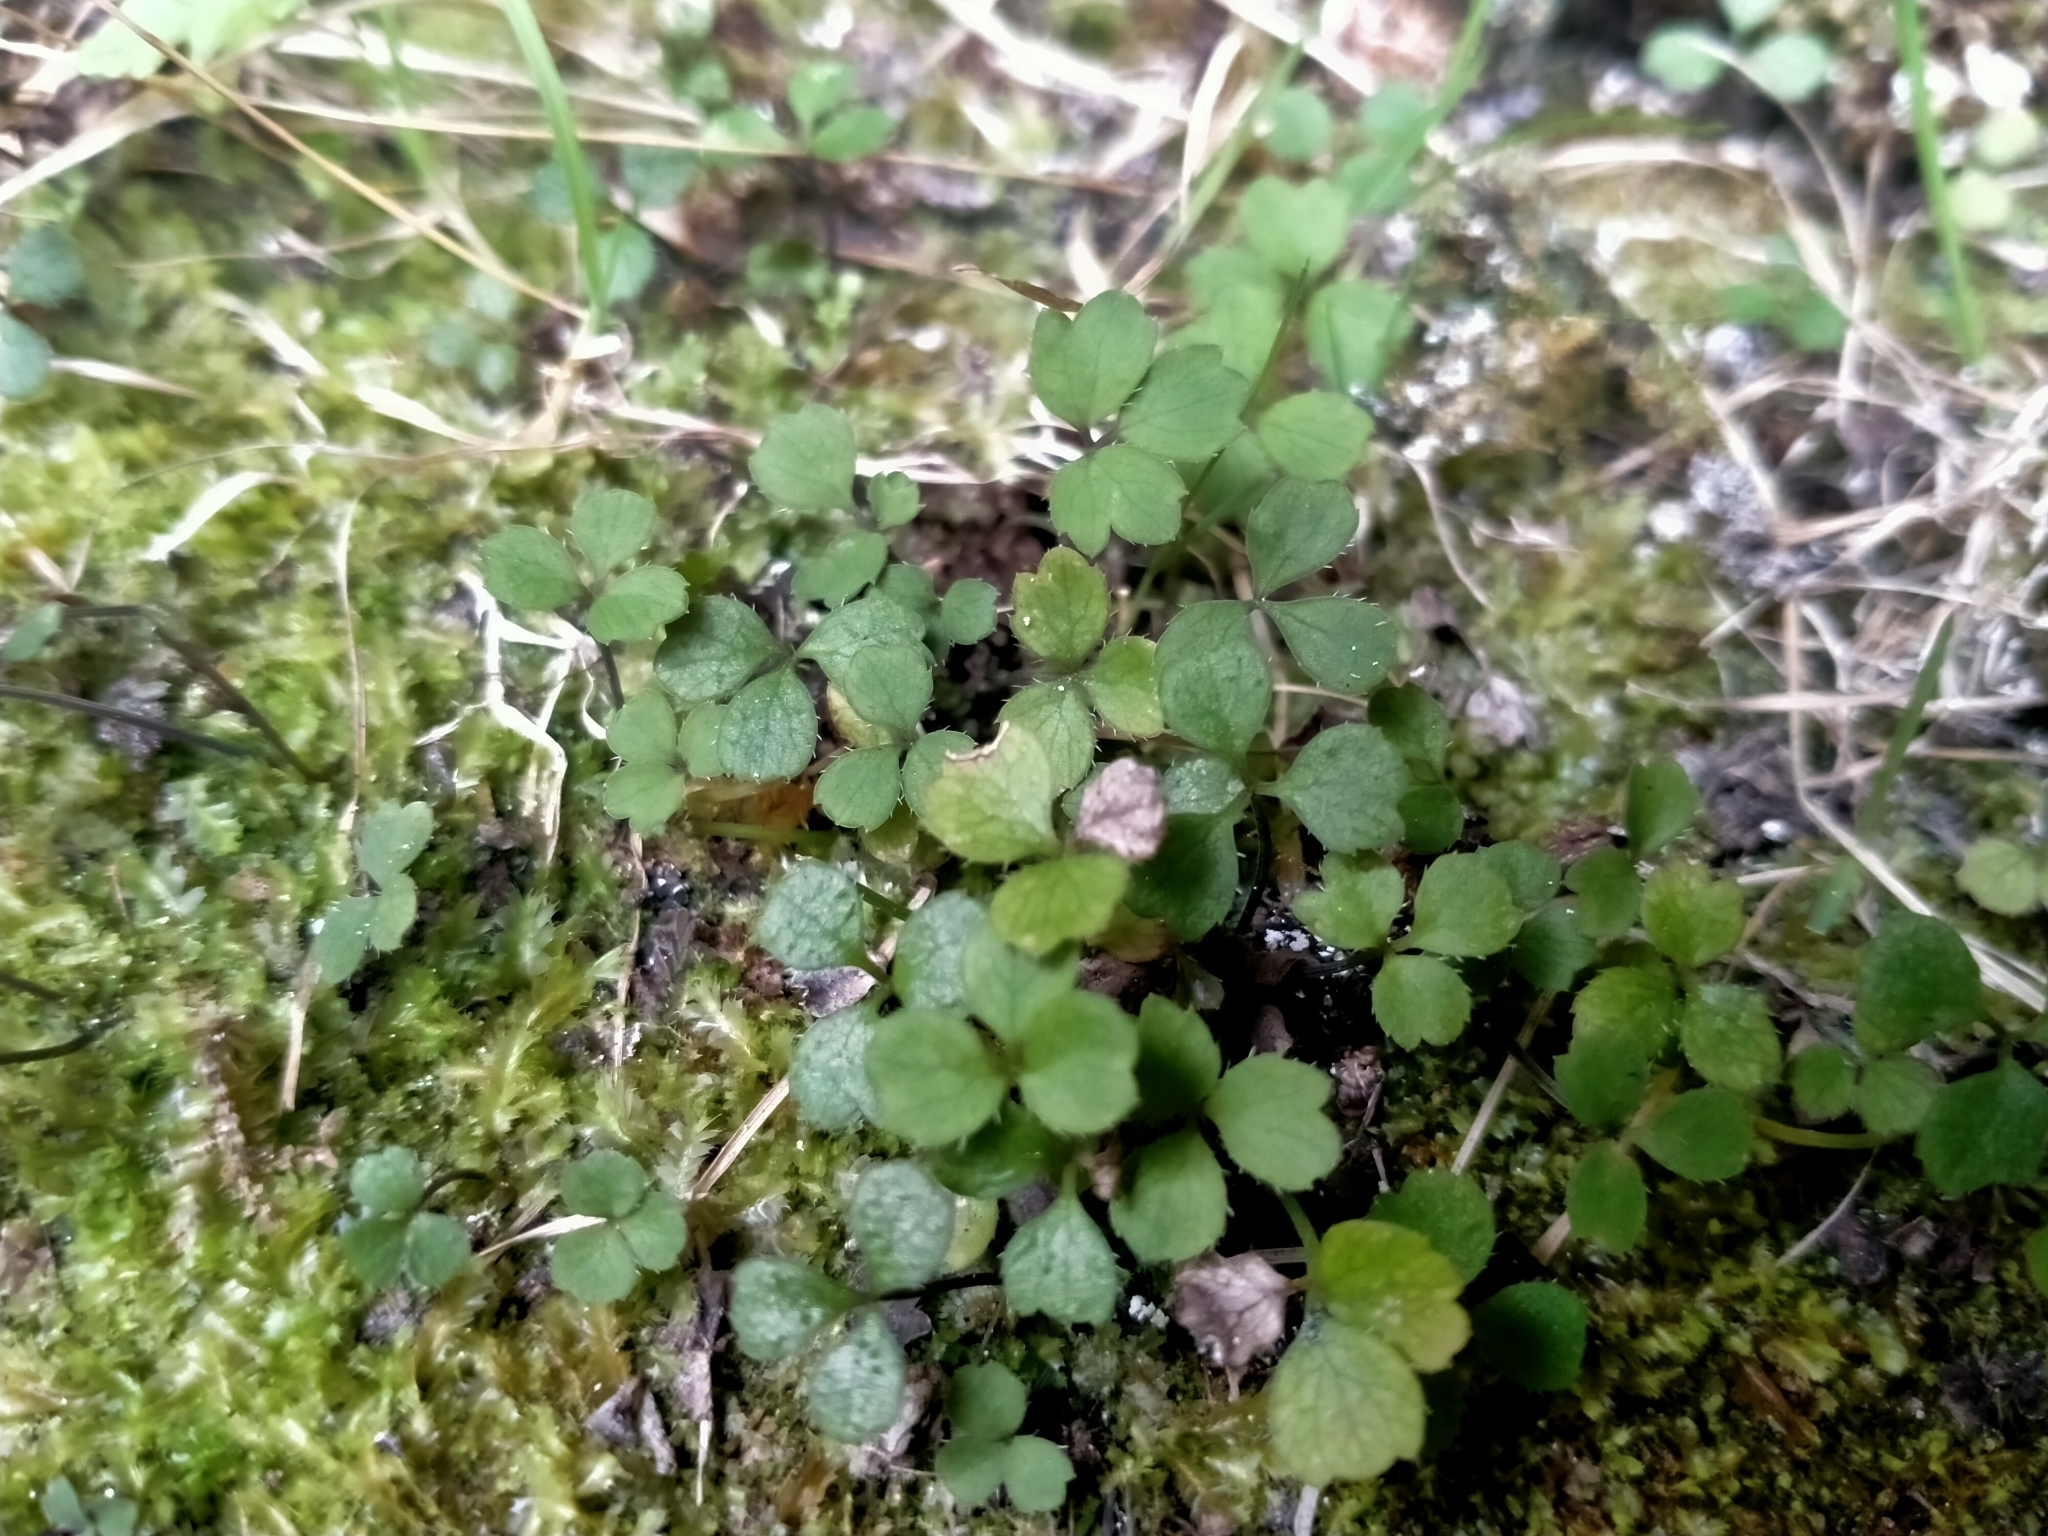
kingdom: Plantae
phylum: Tracheophyta
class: Magnoliopsida
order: Apiales
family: Apiaceae
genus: Azorella
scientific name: Azorella hookeri
